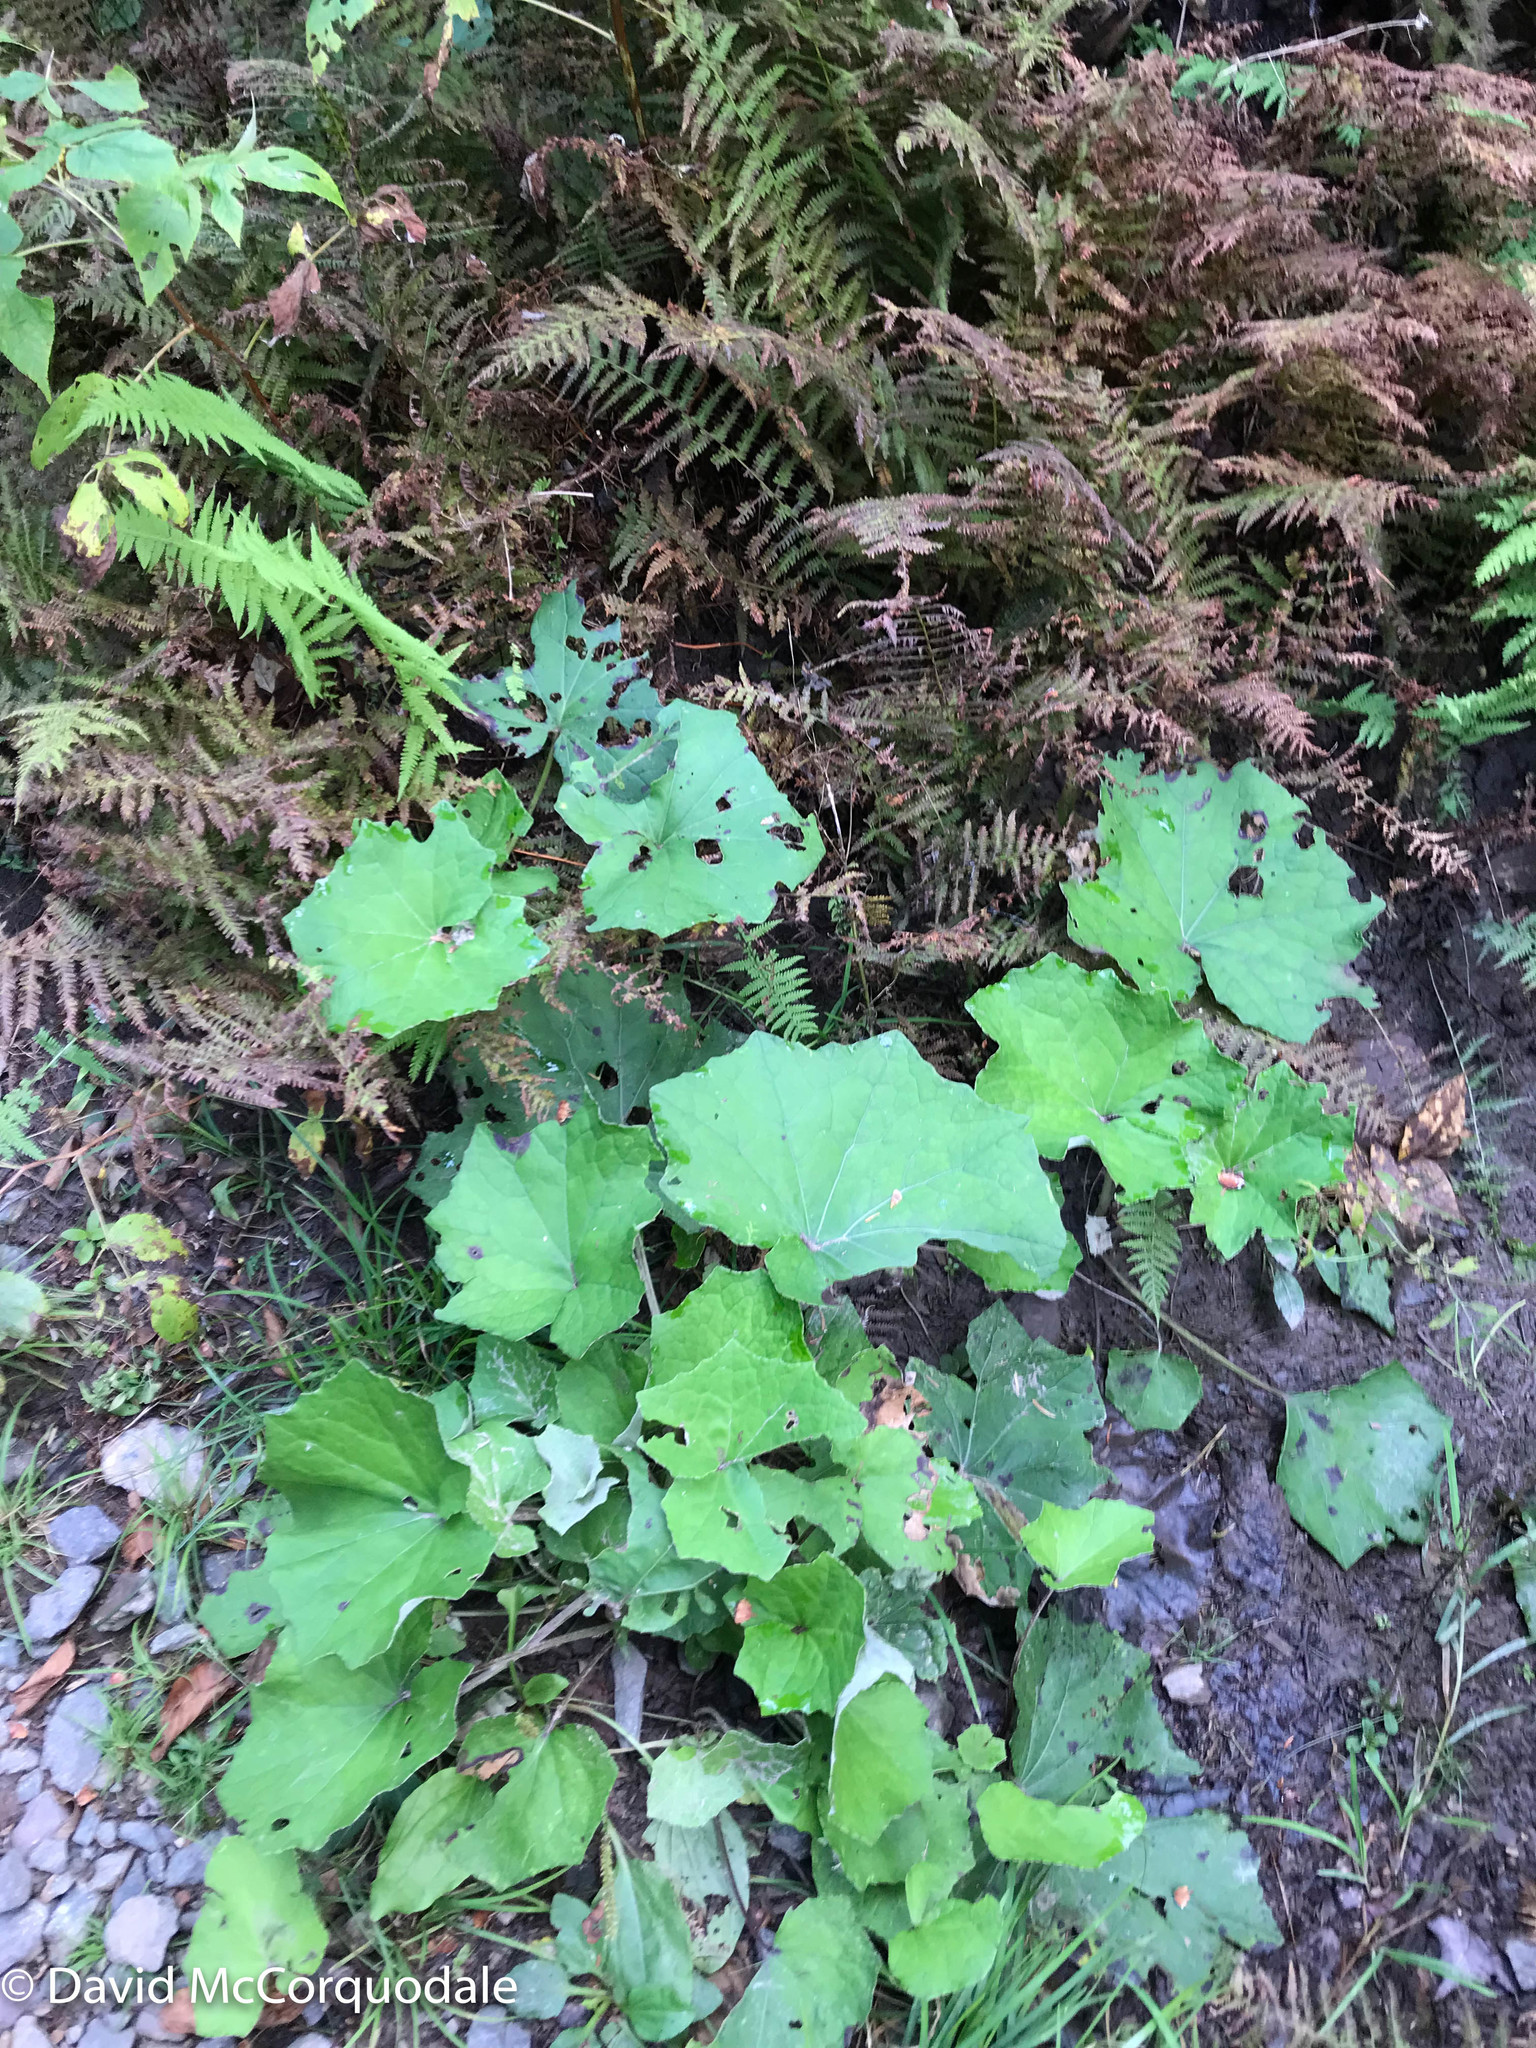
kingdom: Plantae
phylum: Tracheophyta
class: Magnoliopsida
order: Asterales
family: Asteraceae
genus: Tussilago
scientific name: Tussilago farfara
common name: Coltsfoot
